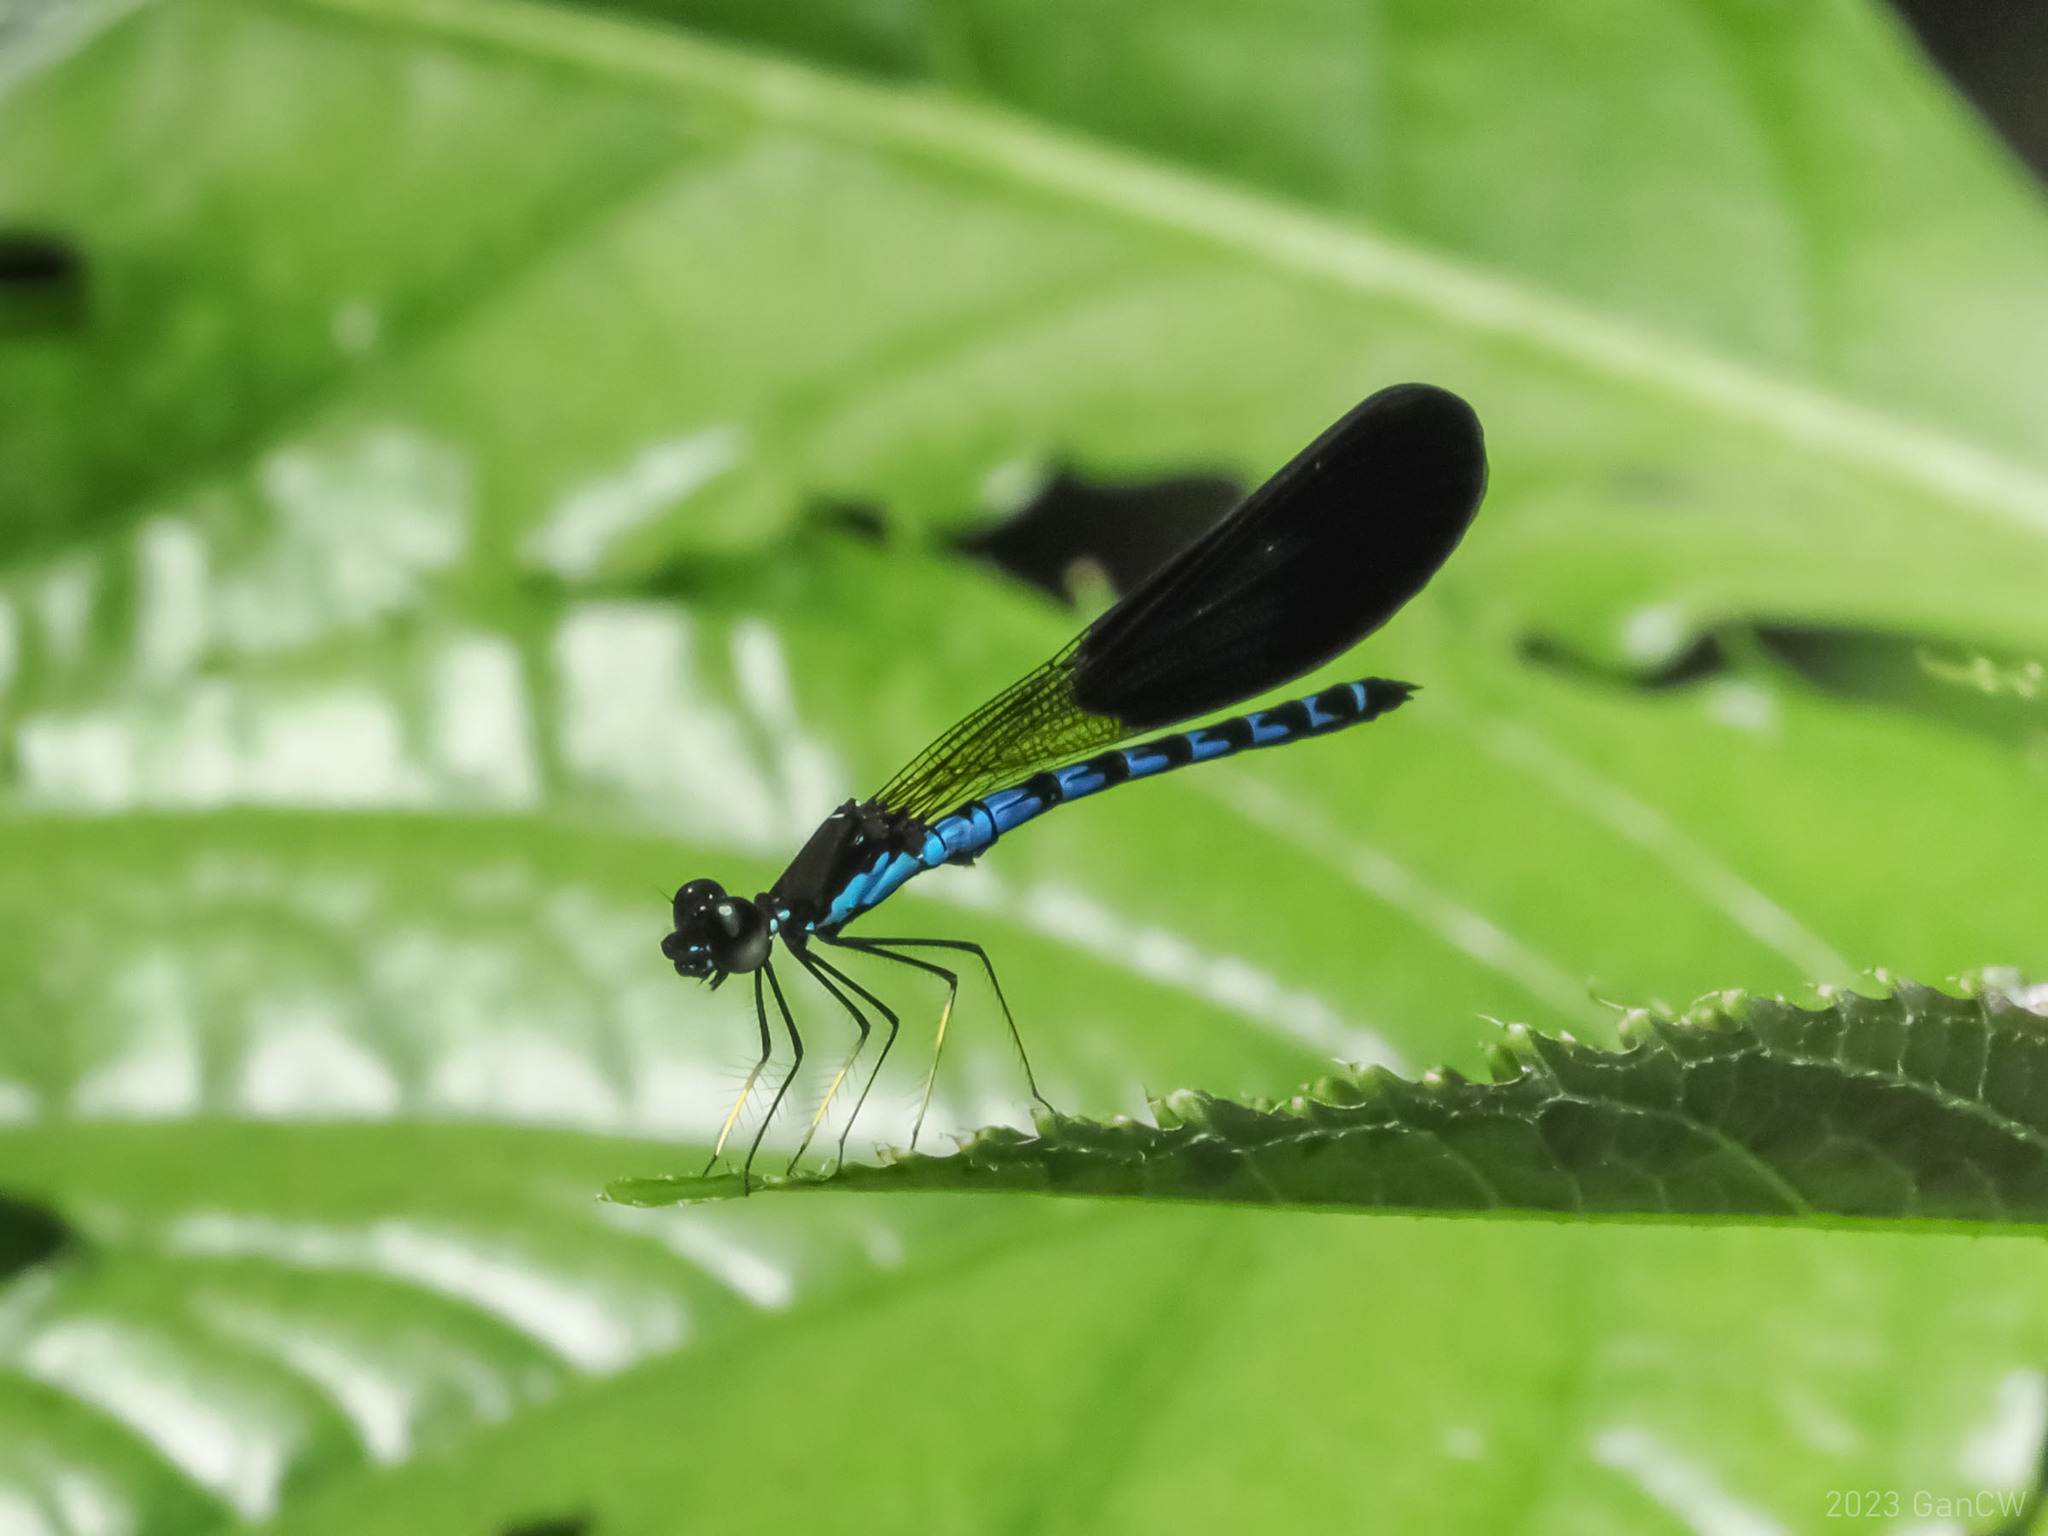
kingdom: Animalia
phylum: Arthropoda
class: Insecta
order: Odonata
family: Chlorocyphidae
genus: Rhinocypha
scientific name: Rhinocypha tincta
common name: Papuan jewel
